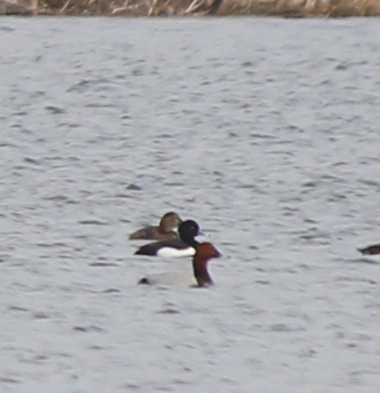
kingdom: Animalia
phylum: Chordata
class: Aves
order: Anseriformes
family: Anatidae
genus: Aythya
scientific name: Aythya fuligula
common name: Tufted duck
